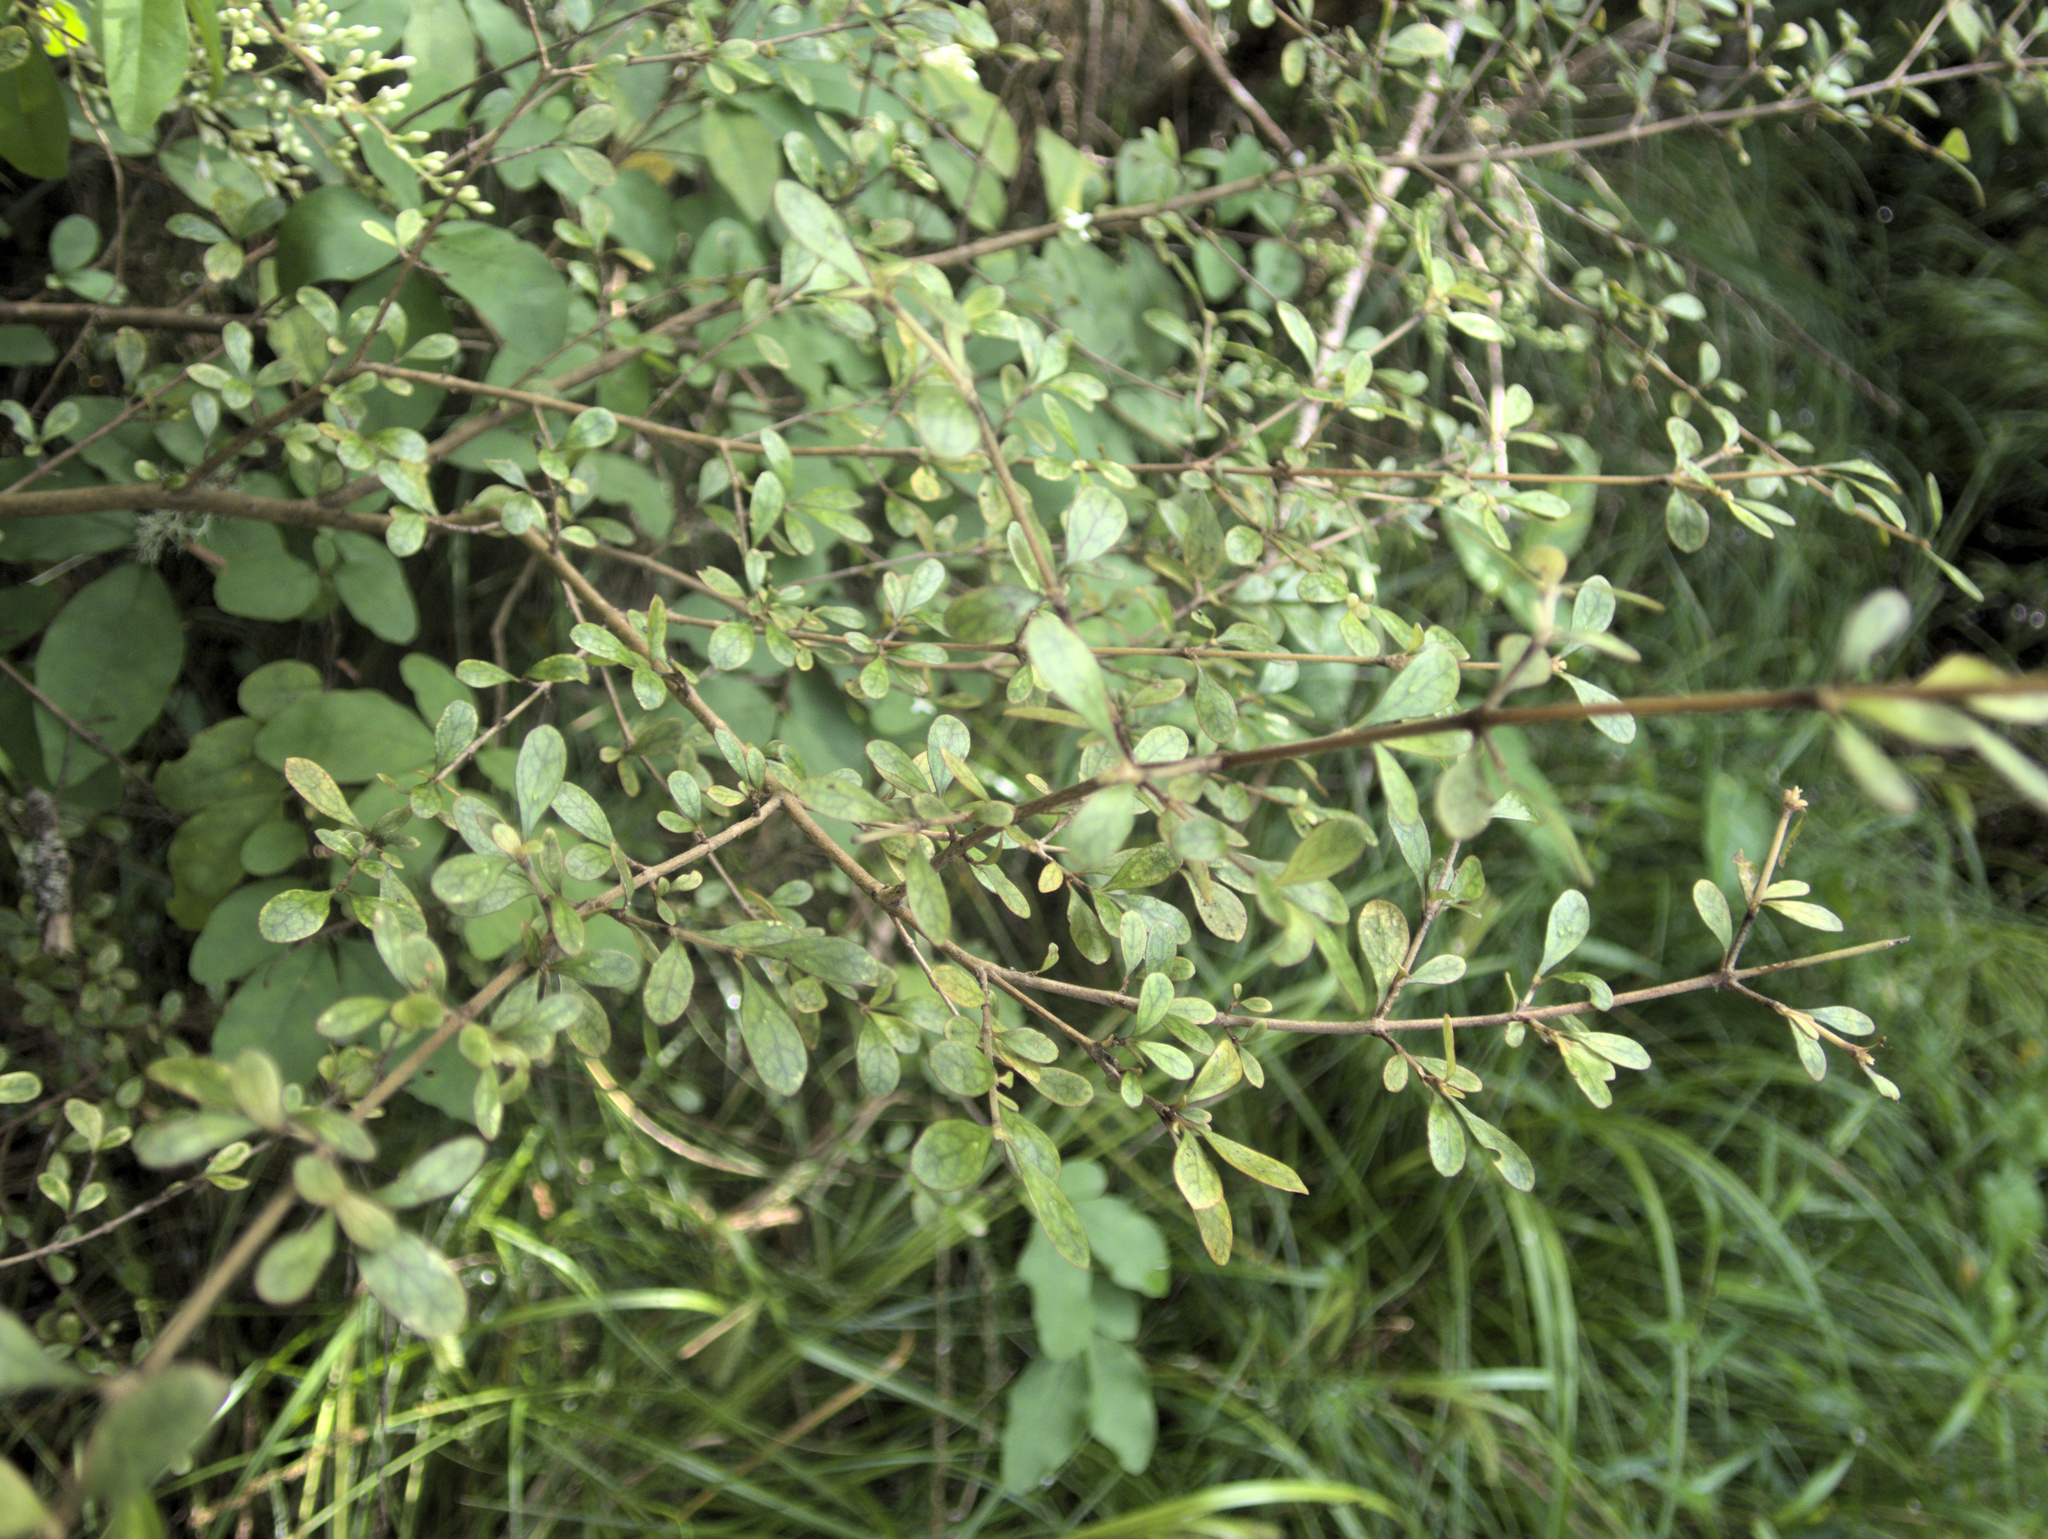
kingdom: Plantae
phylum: Tracheophyta
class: Magnoliopsida
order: Gentianales
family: Rubiaceae
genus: Coprosma
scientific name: Coprosma rigida
